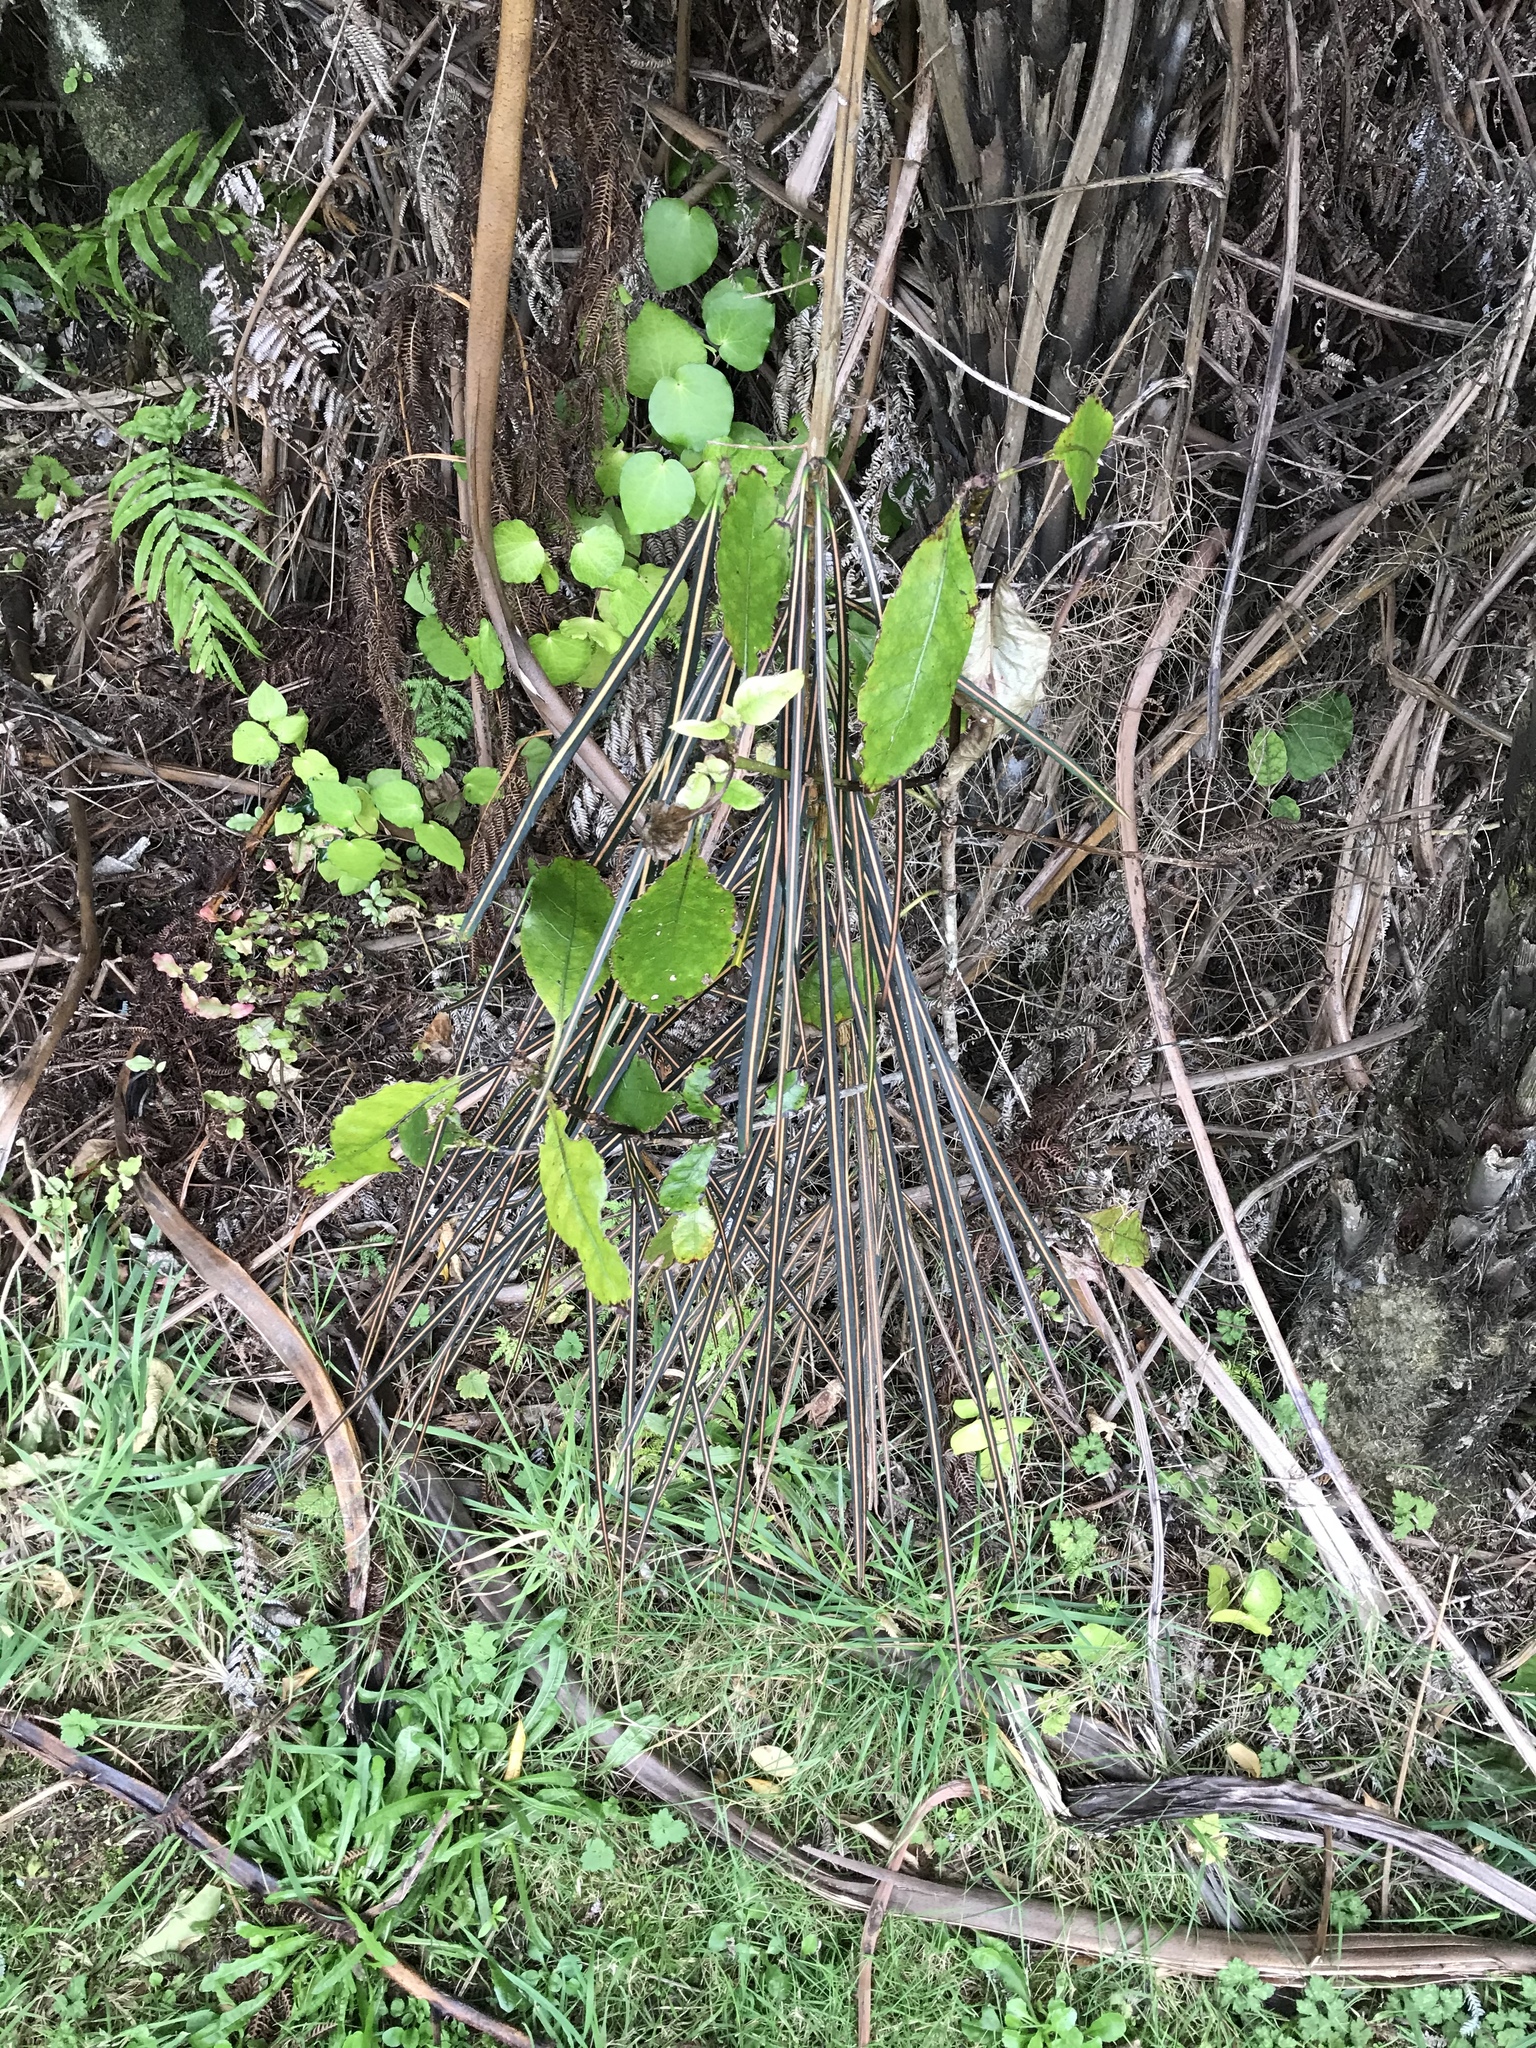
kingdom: Plantae
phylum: Tracheophyta
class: Magnoliopsida
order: Apiales
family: Araliaceae
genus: Pseudopanax
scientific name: Pseudopanax crassifolius
